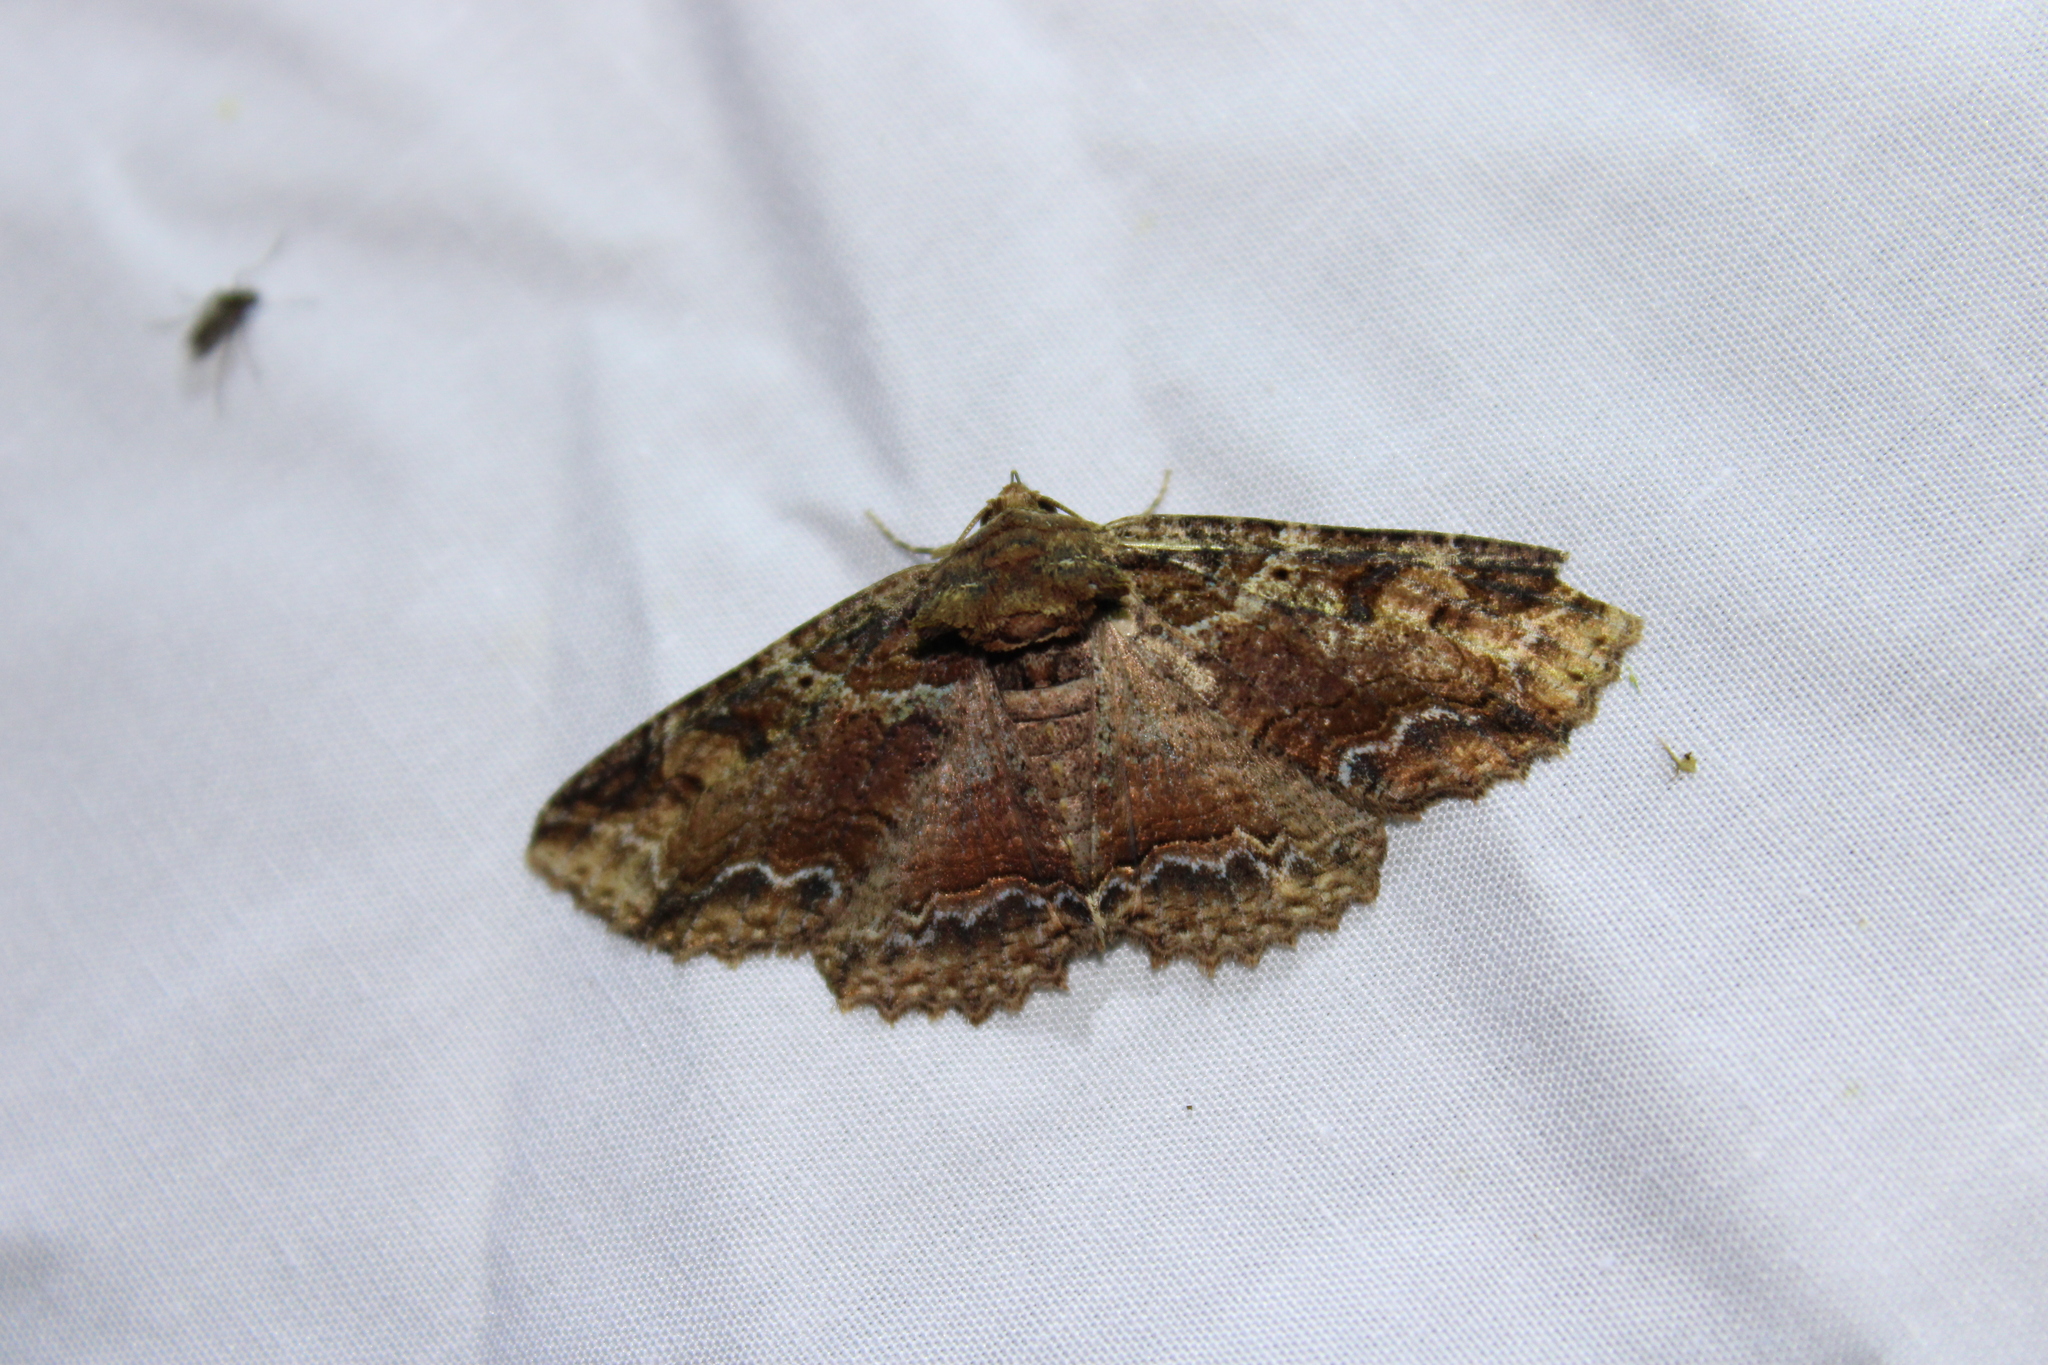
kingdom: Animalia
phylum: Arthropoda
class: Insecta
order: Lepidoptera
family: Erebidae
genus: Zale
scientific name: Zale minerea
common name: Colorful zale moth
